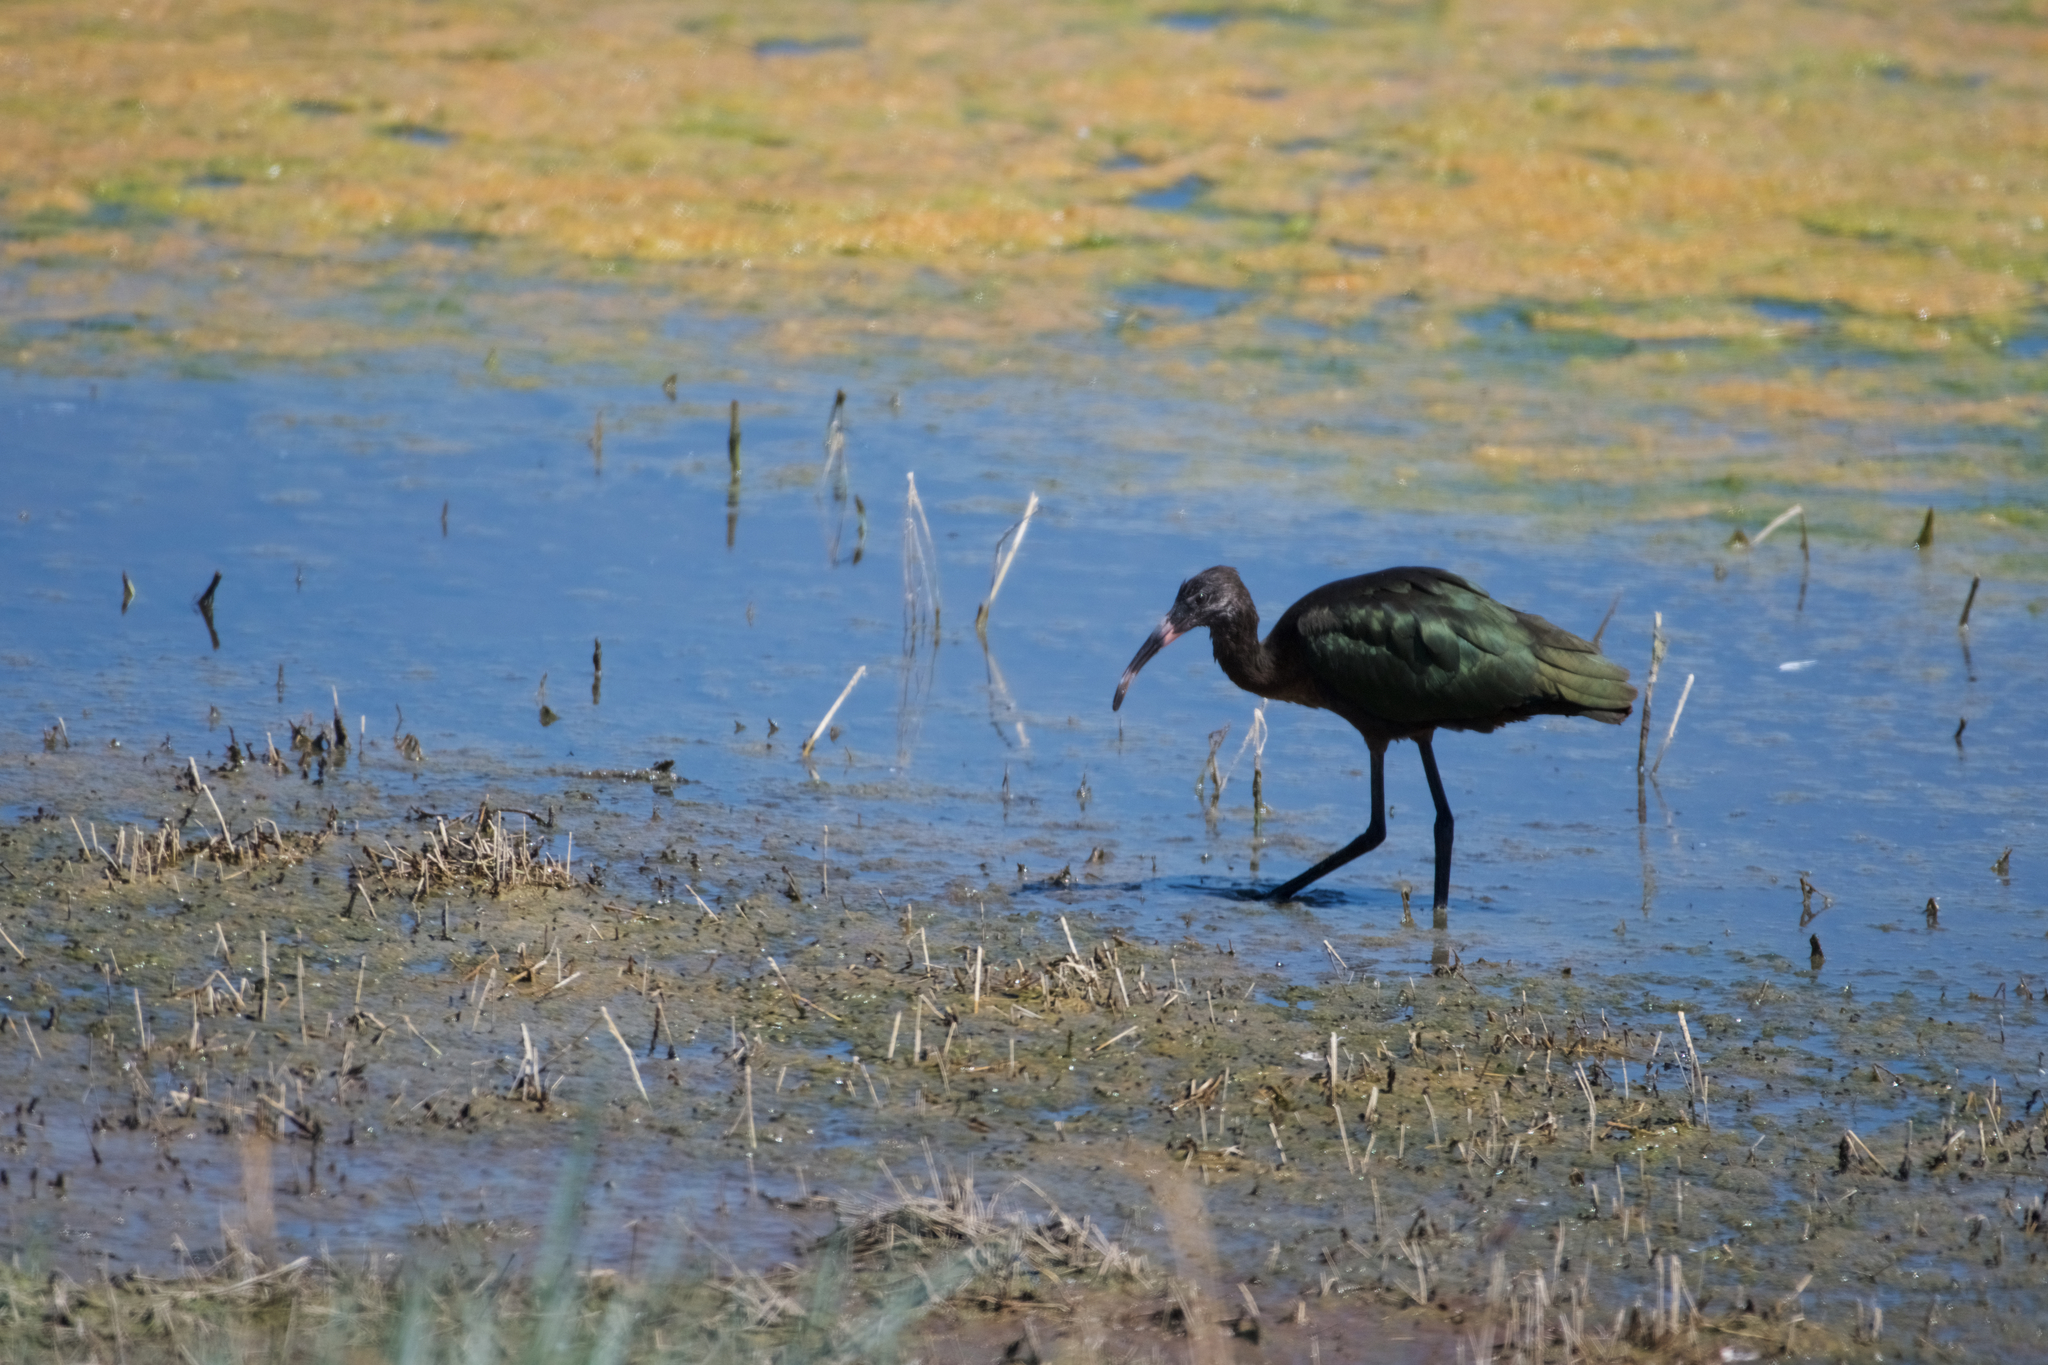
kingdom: Animalia
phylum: Chordata
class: Aves
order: Pelecaniformes
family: Threskiornithidae
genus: Plegadis
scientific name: Plegadis chihi
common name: White-faced ibis
